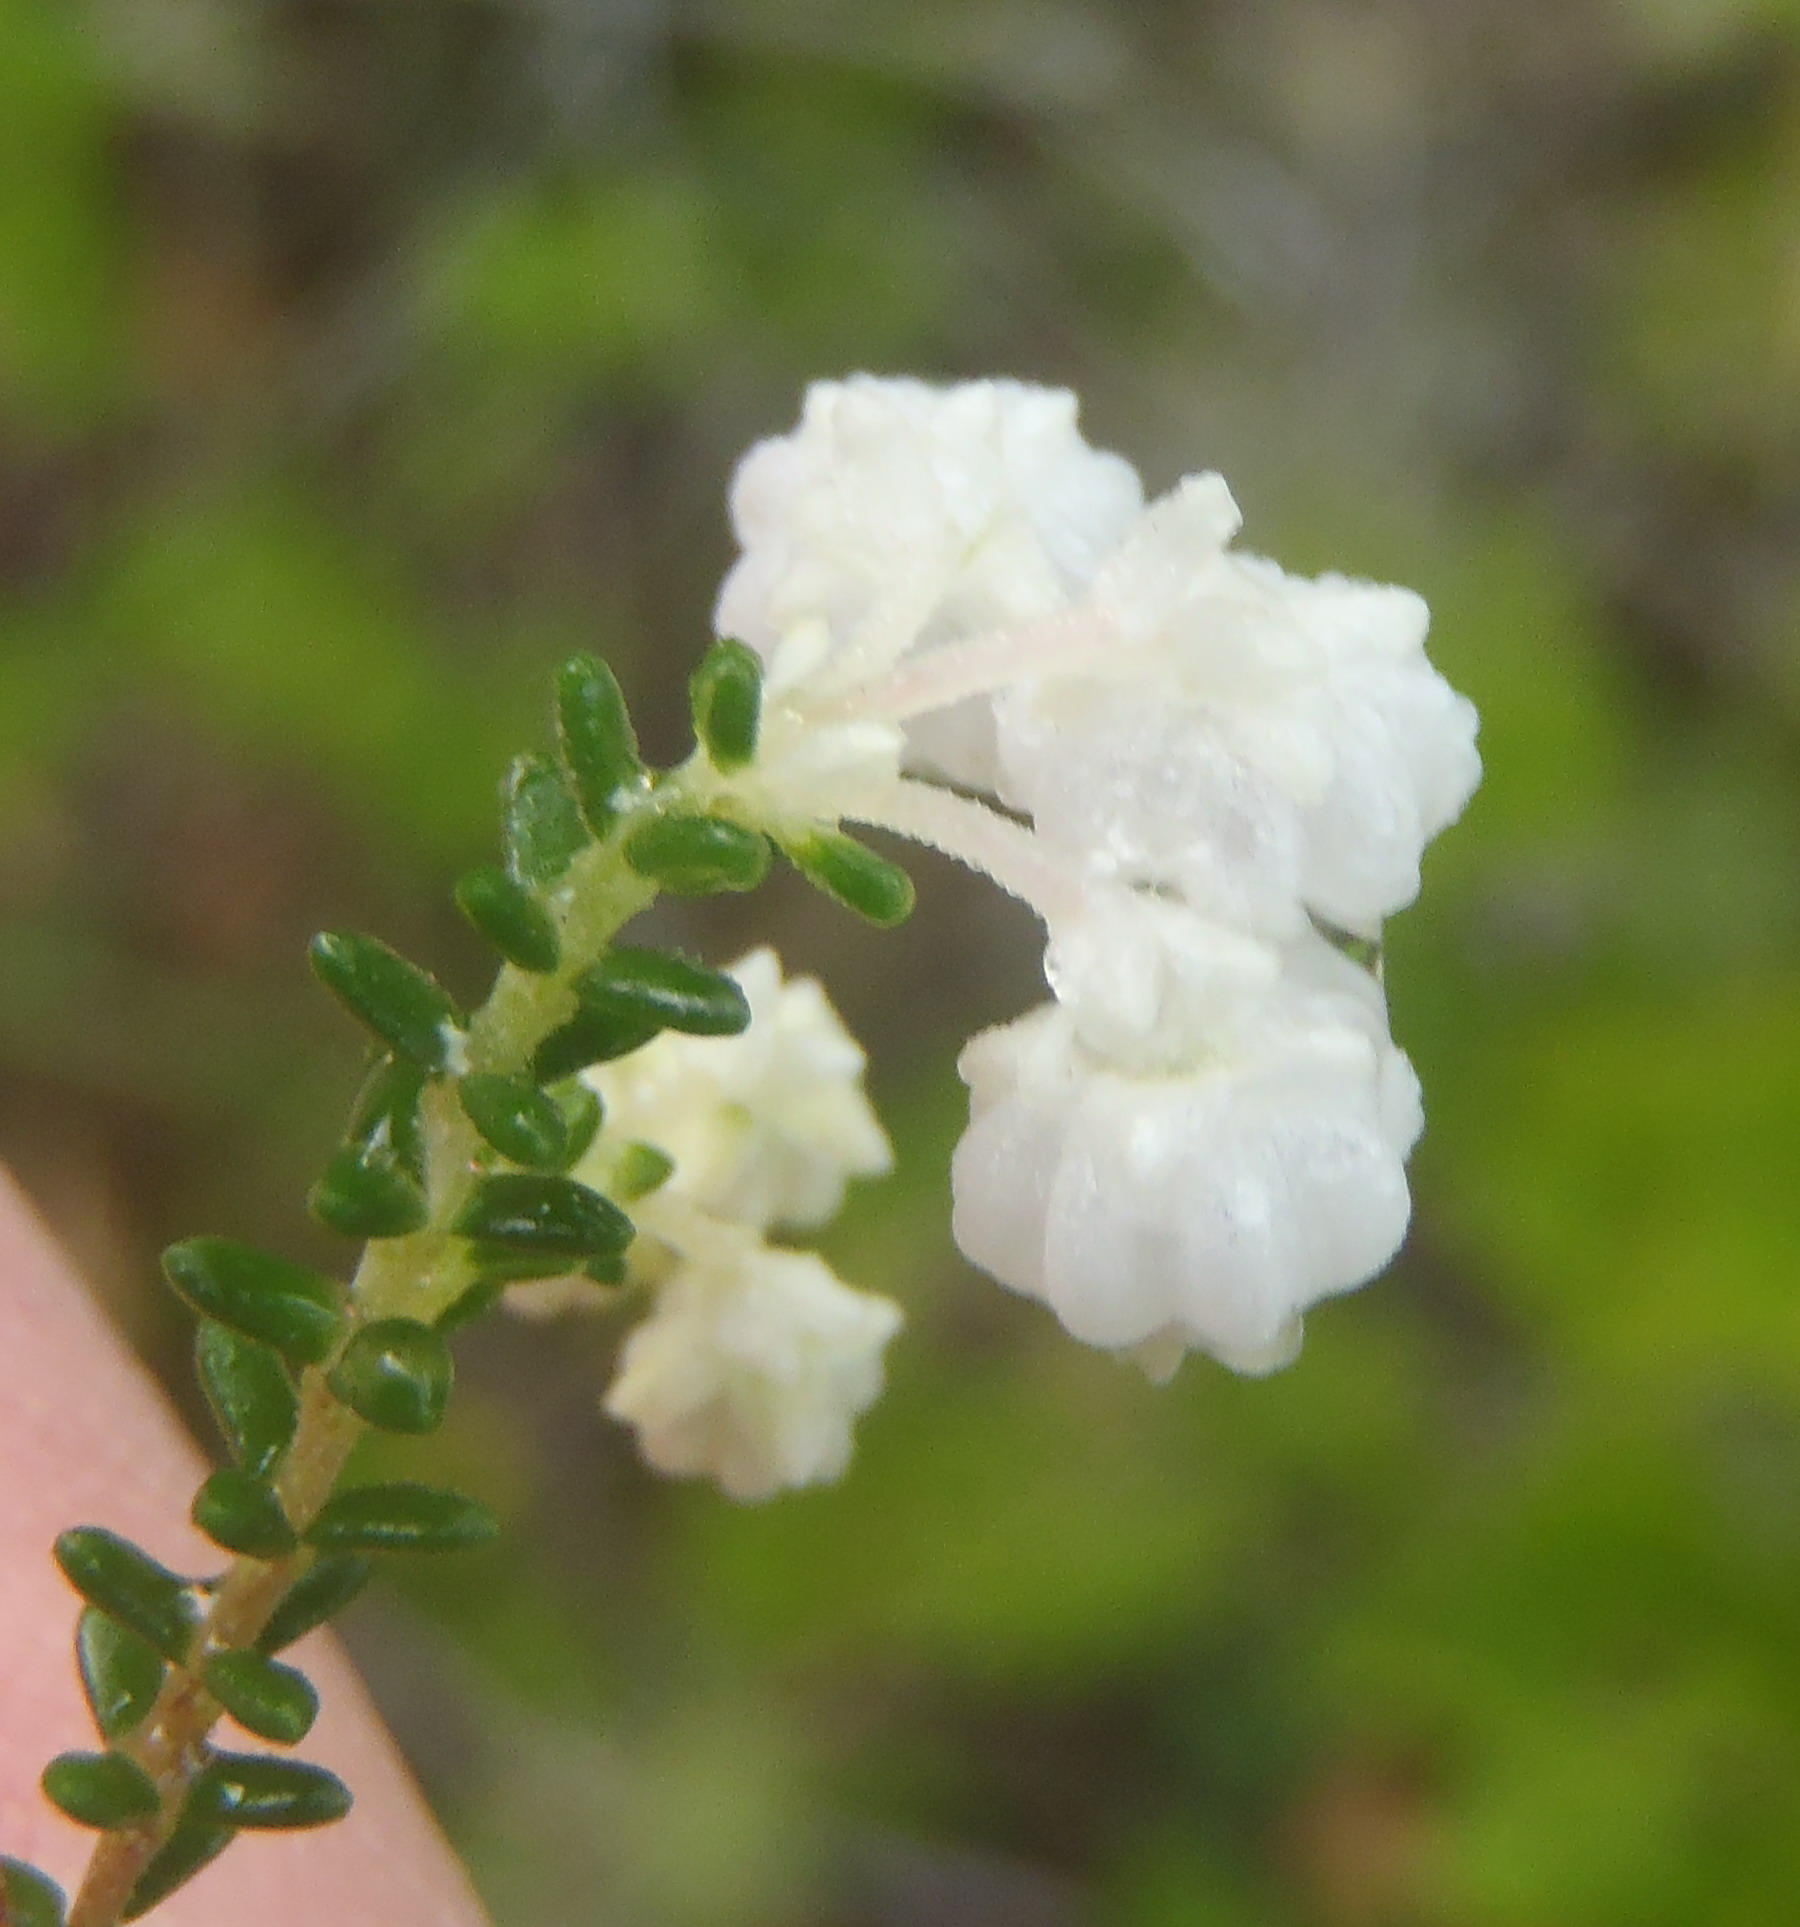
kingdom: Plantae
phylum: Tracheophyta
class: Magnoliopsida
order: Ericales
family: Ericaceae
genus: Erica
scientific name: Erica formosa
